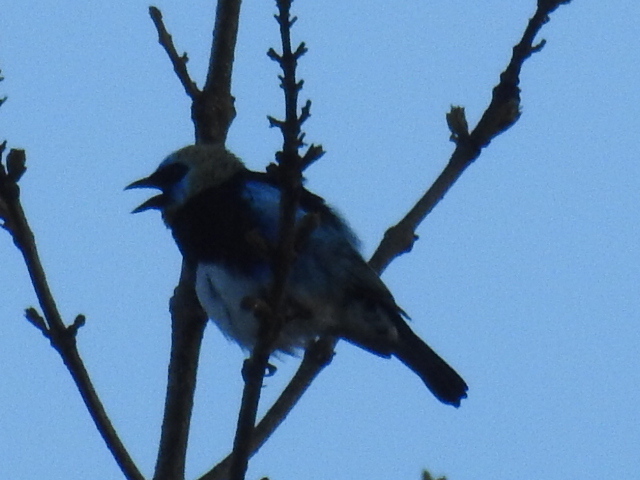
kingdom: Animalia
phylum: Chordata
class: Aves
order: Passeriformes
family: Thraupidae
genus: Stilpnia
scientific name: Stilpnia larvata
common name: Golden-hooded tanager
